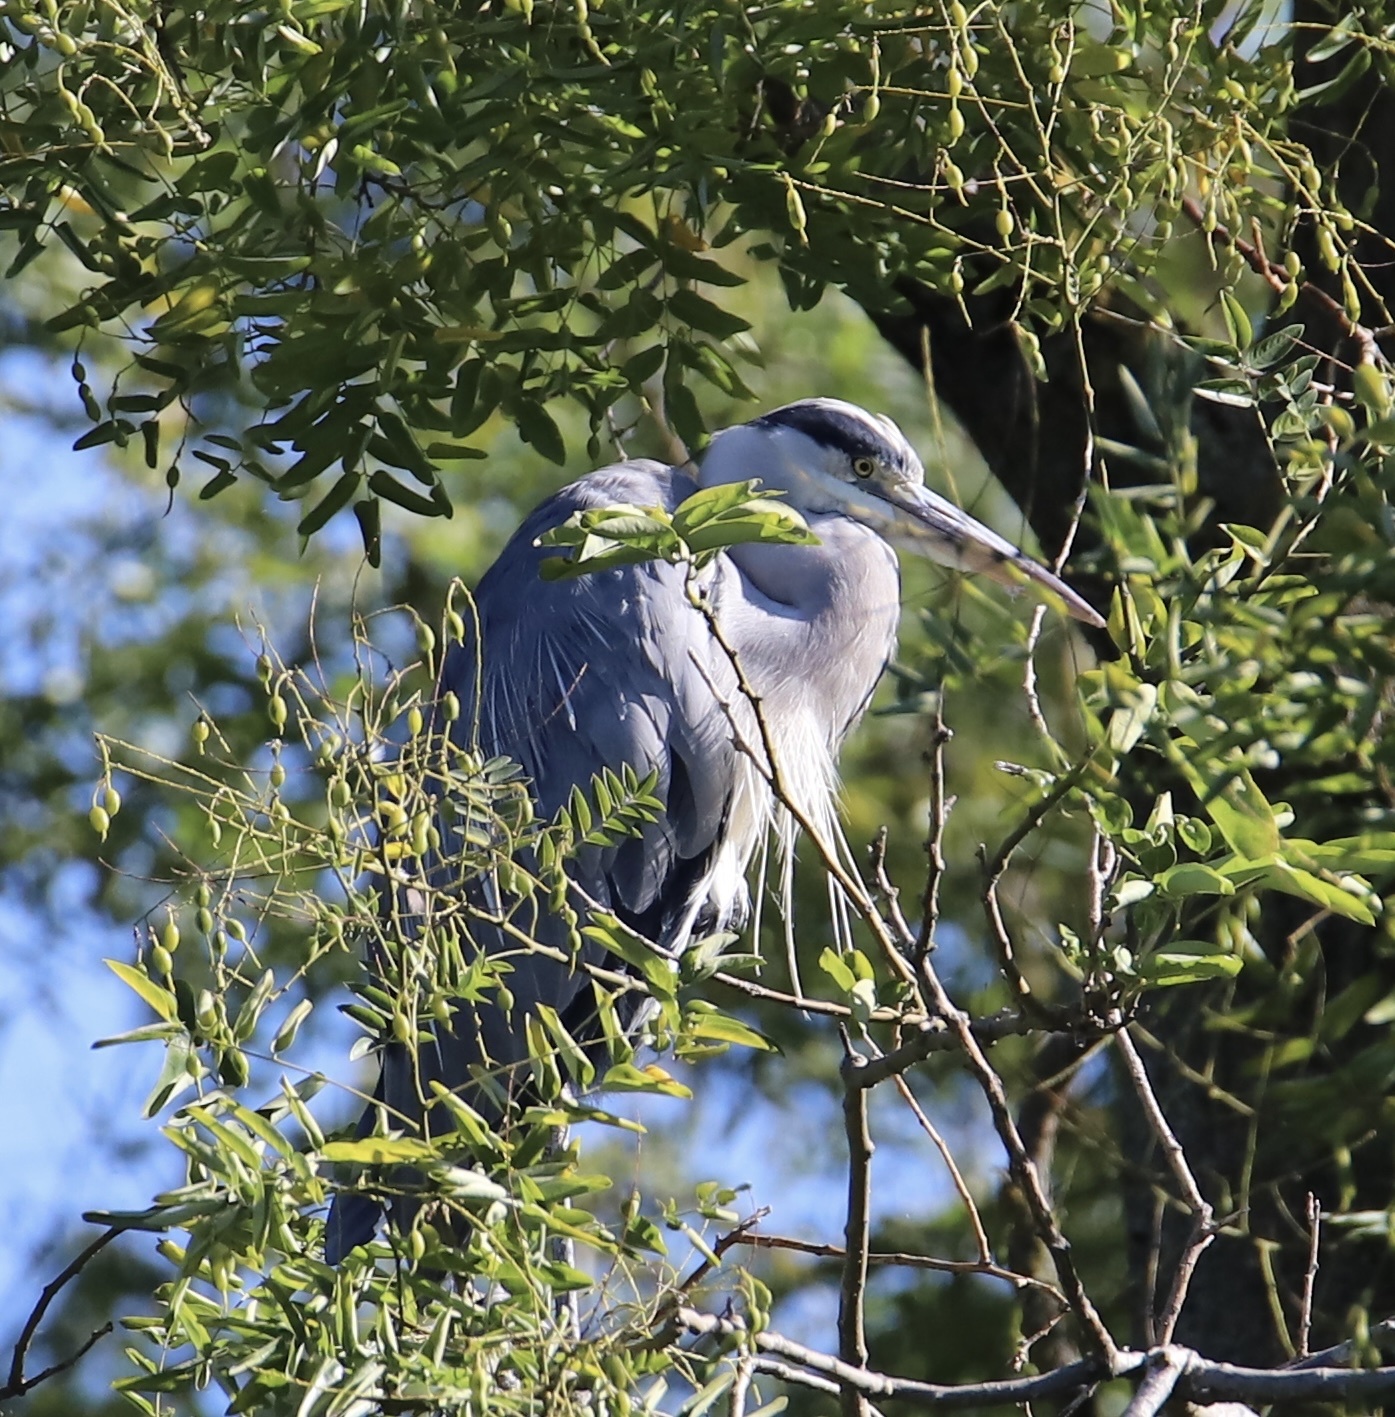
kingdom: Animalia
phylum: Chordata
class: Aves
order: Pelecaniformes
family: Ardeidae
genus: Ardea
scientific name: Ardea cinerea
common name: Grey heron
